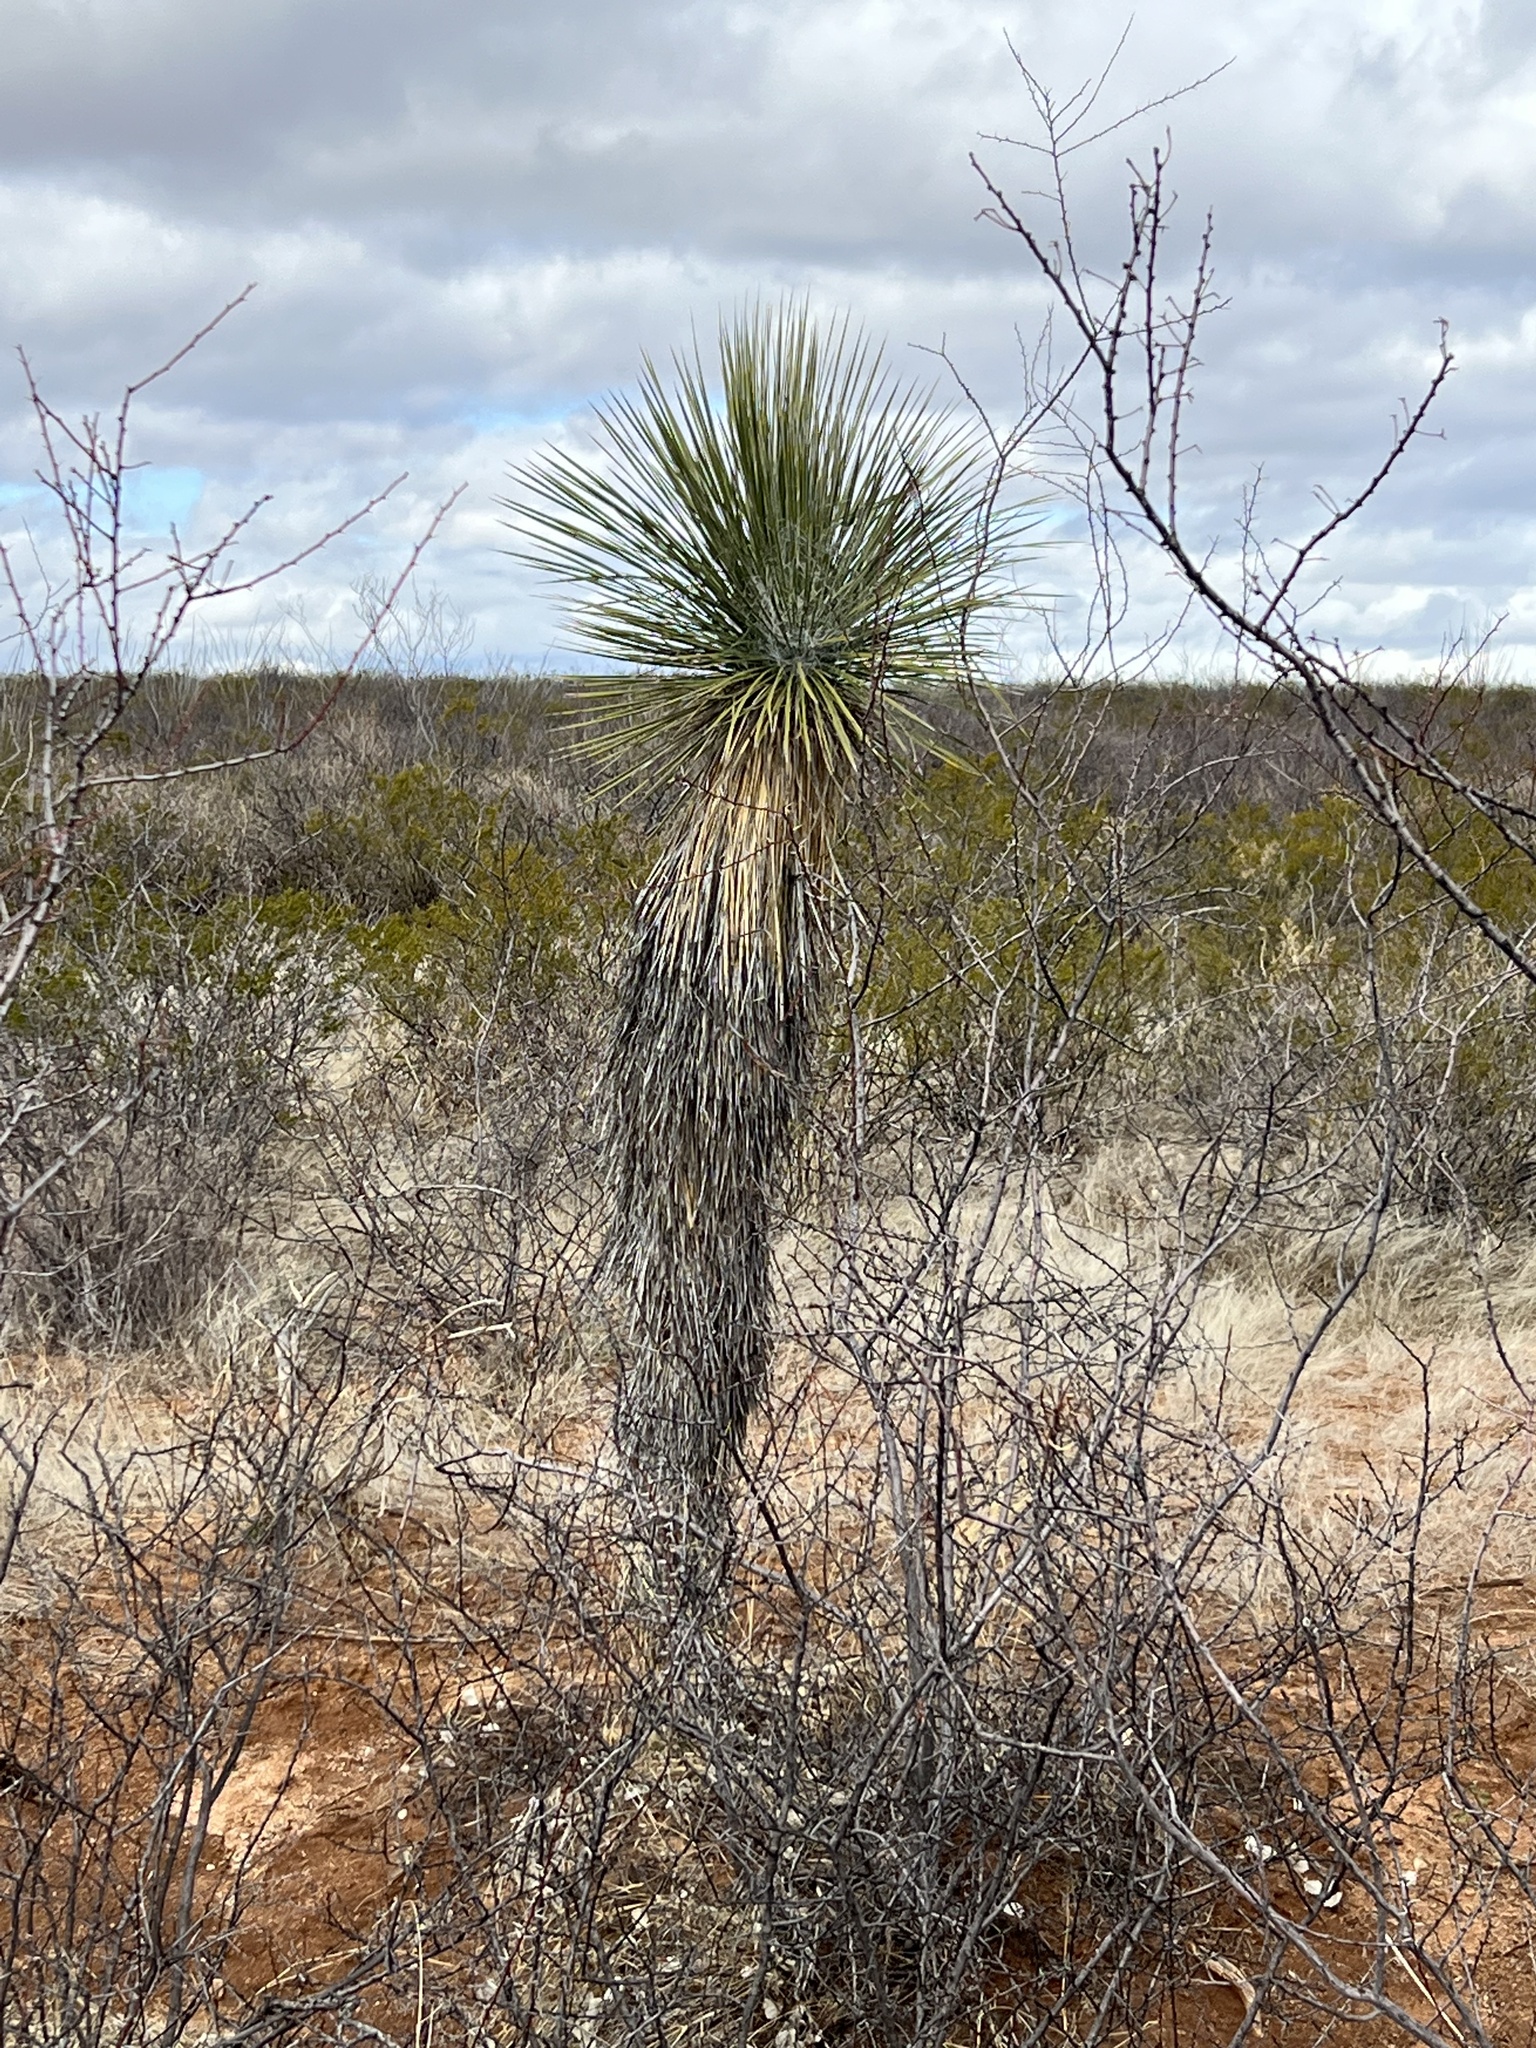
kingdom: Plantae
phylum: Tracheophyta
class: Liliopsida
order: Asparagales
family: Asparagaceae
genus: Yucca
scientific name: Yucca elata
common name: Palmella
